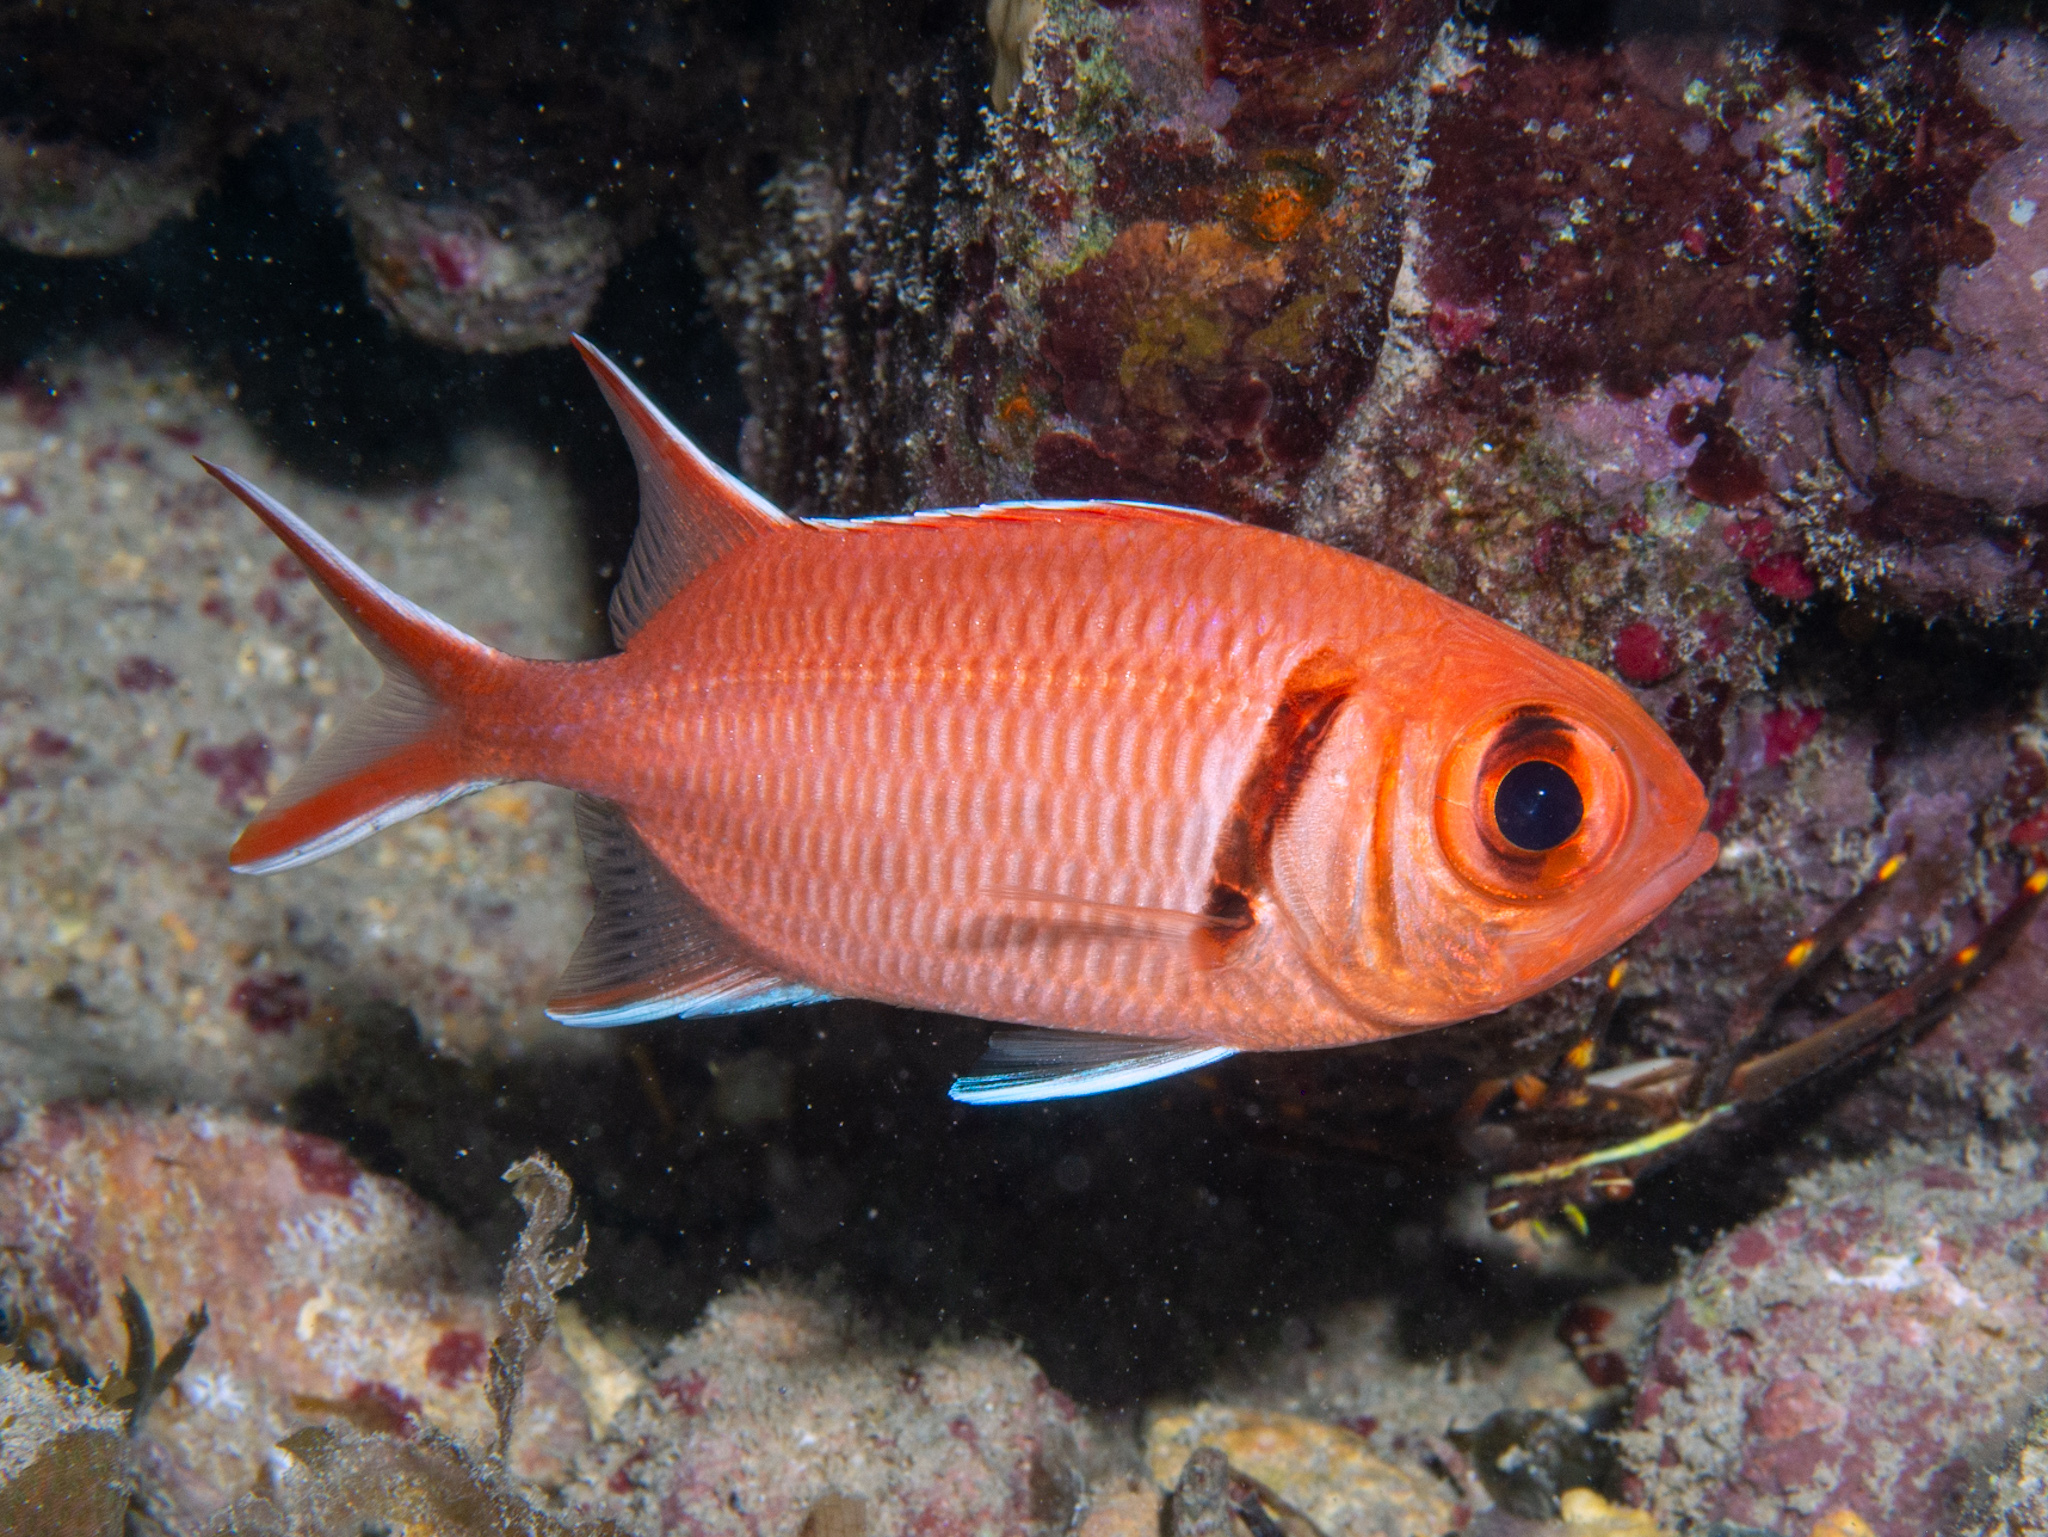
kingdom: Animalia
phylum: Chordata
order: Beryciformes
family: Holocentridae
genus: Myripristis
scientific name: Myripristis jacobus
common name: Blackbar soldierfish
